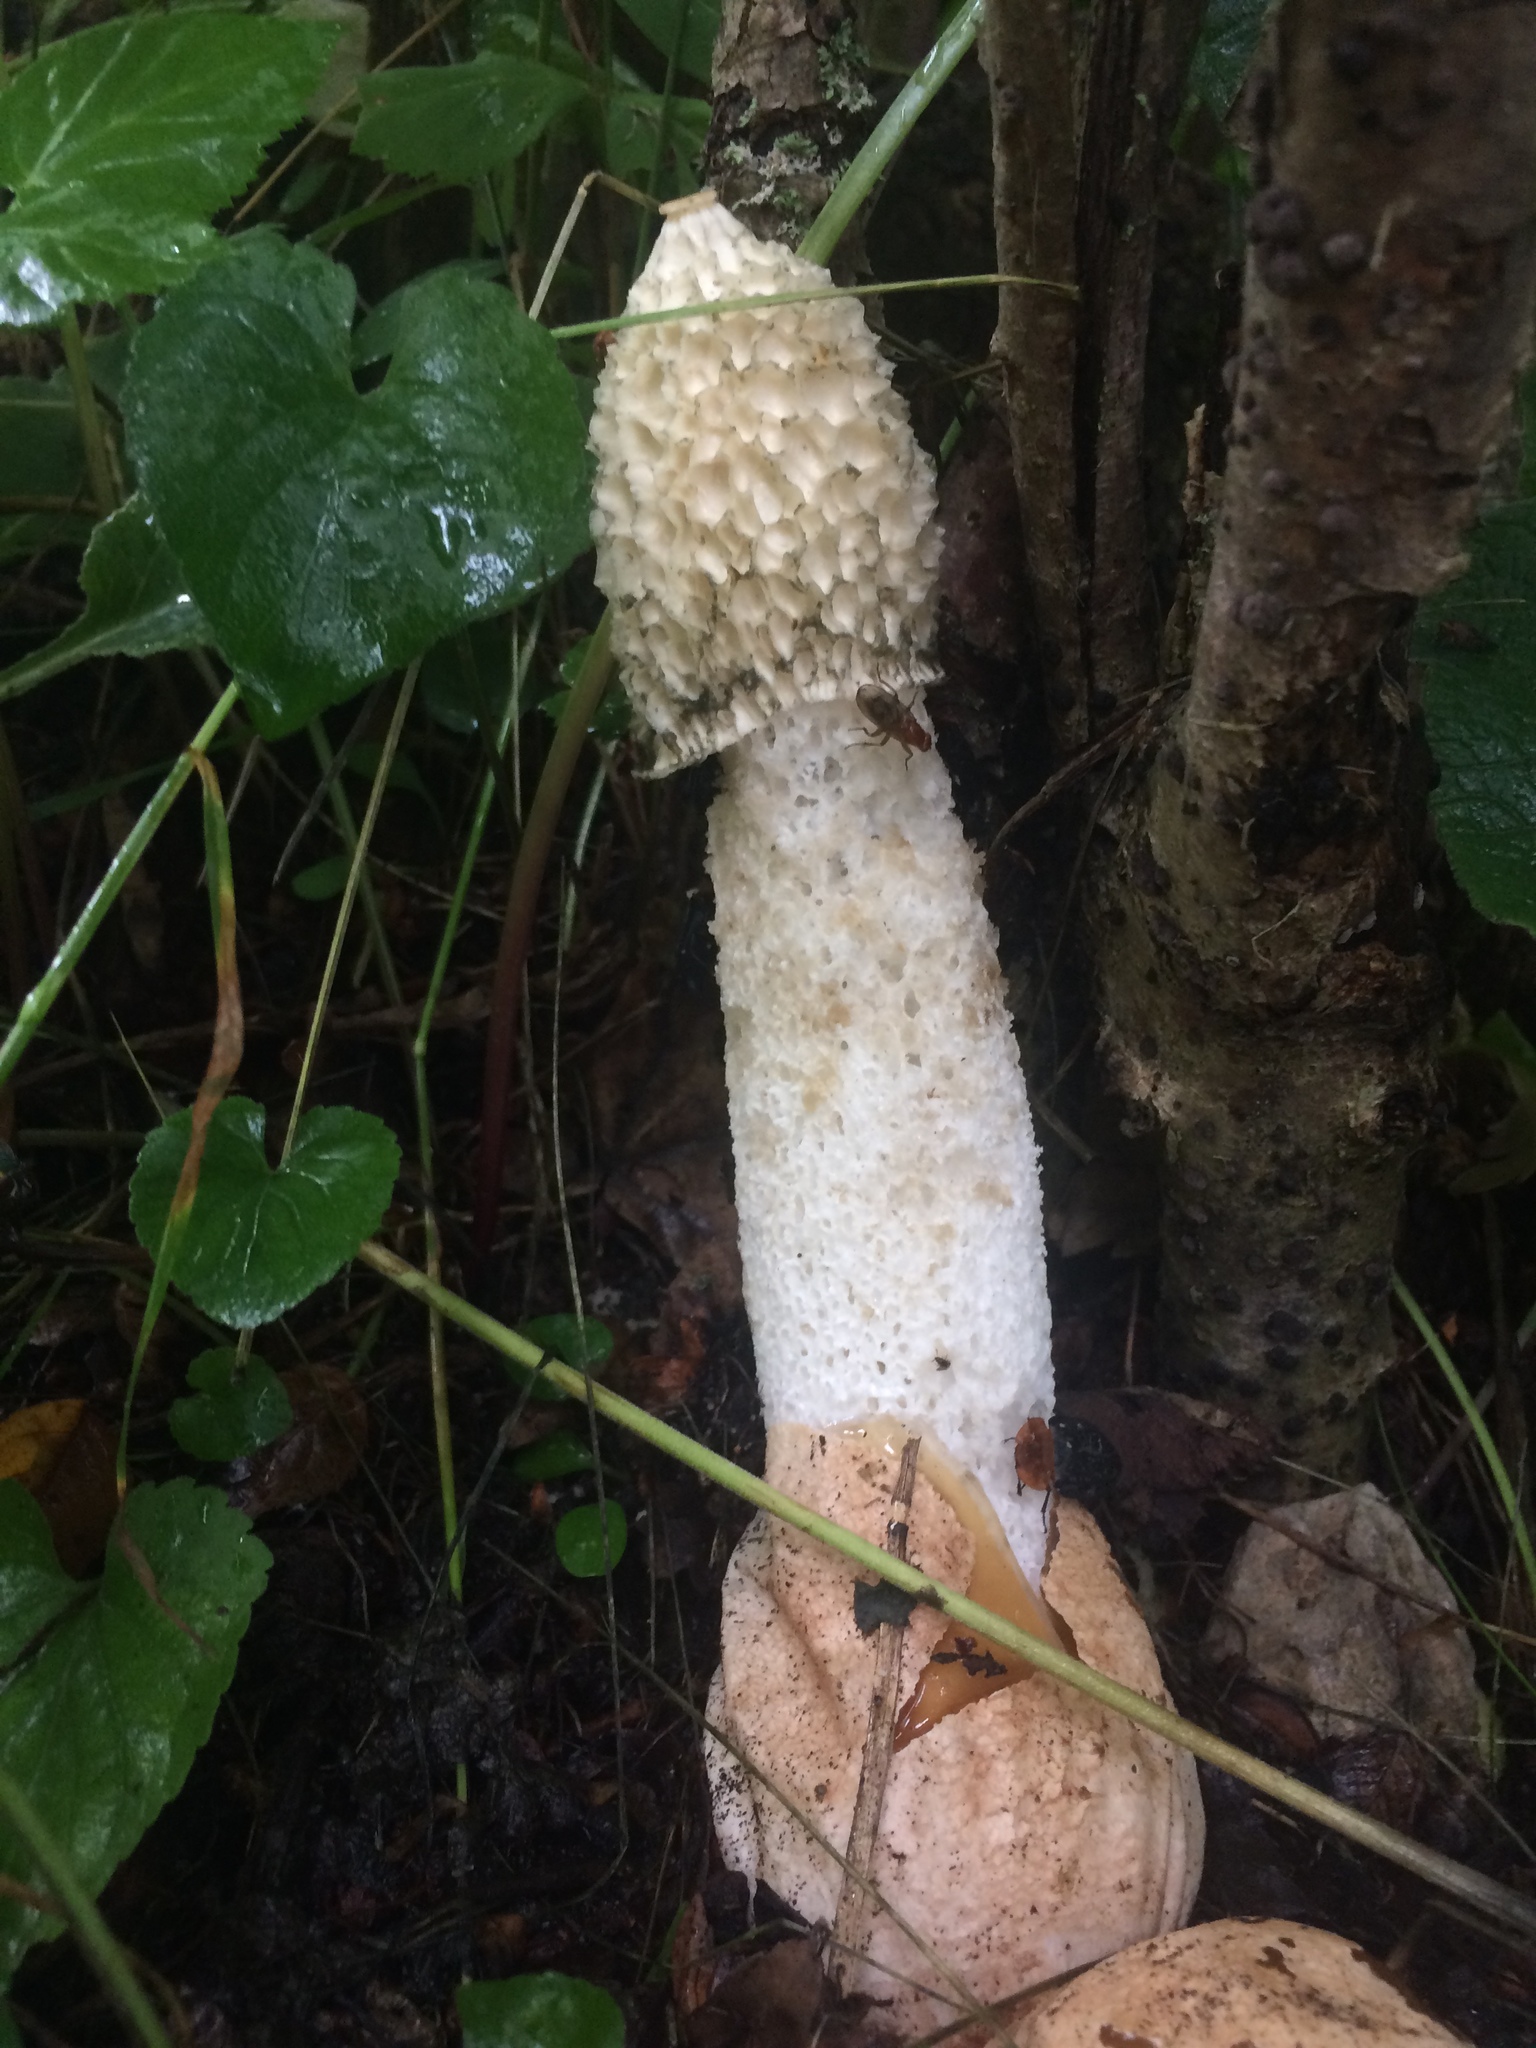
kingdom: Fungi
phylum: Basidiomycota
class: Agaricomycetes
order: Phallales
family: Phallaceae
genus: Phallus
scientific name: Phallus impudicus
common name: Common stinkhorn
